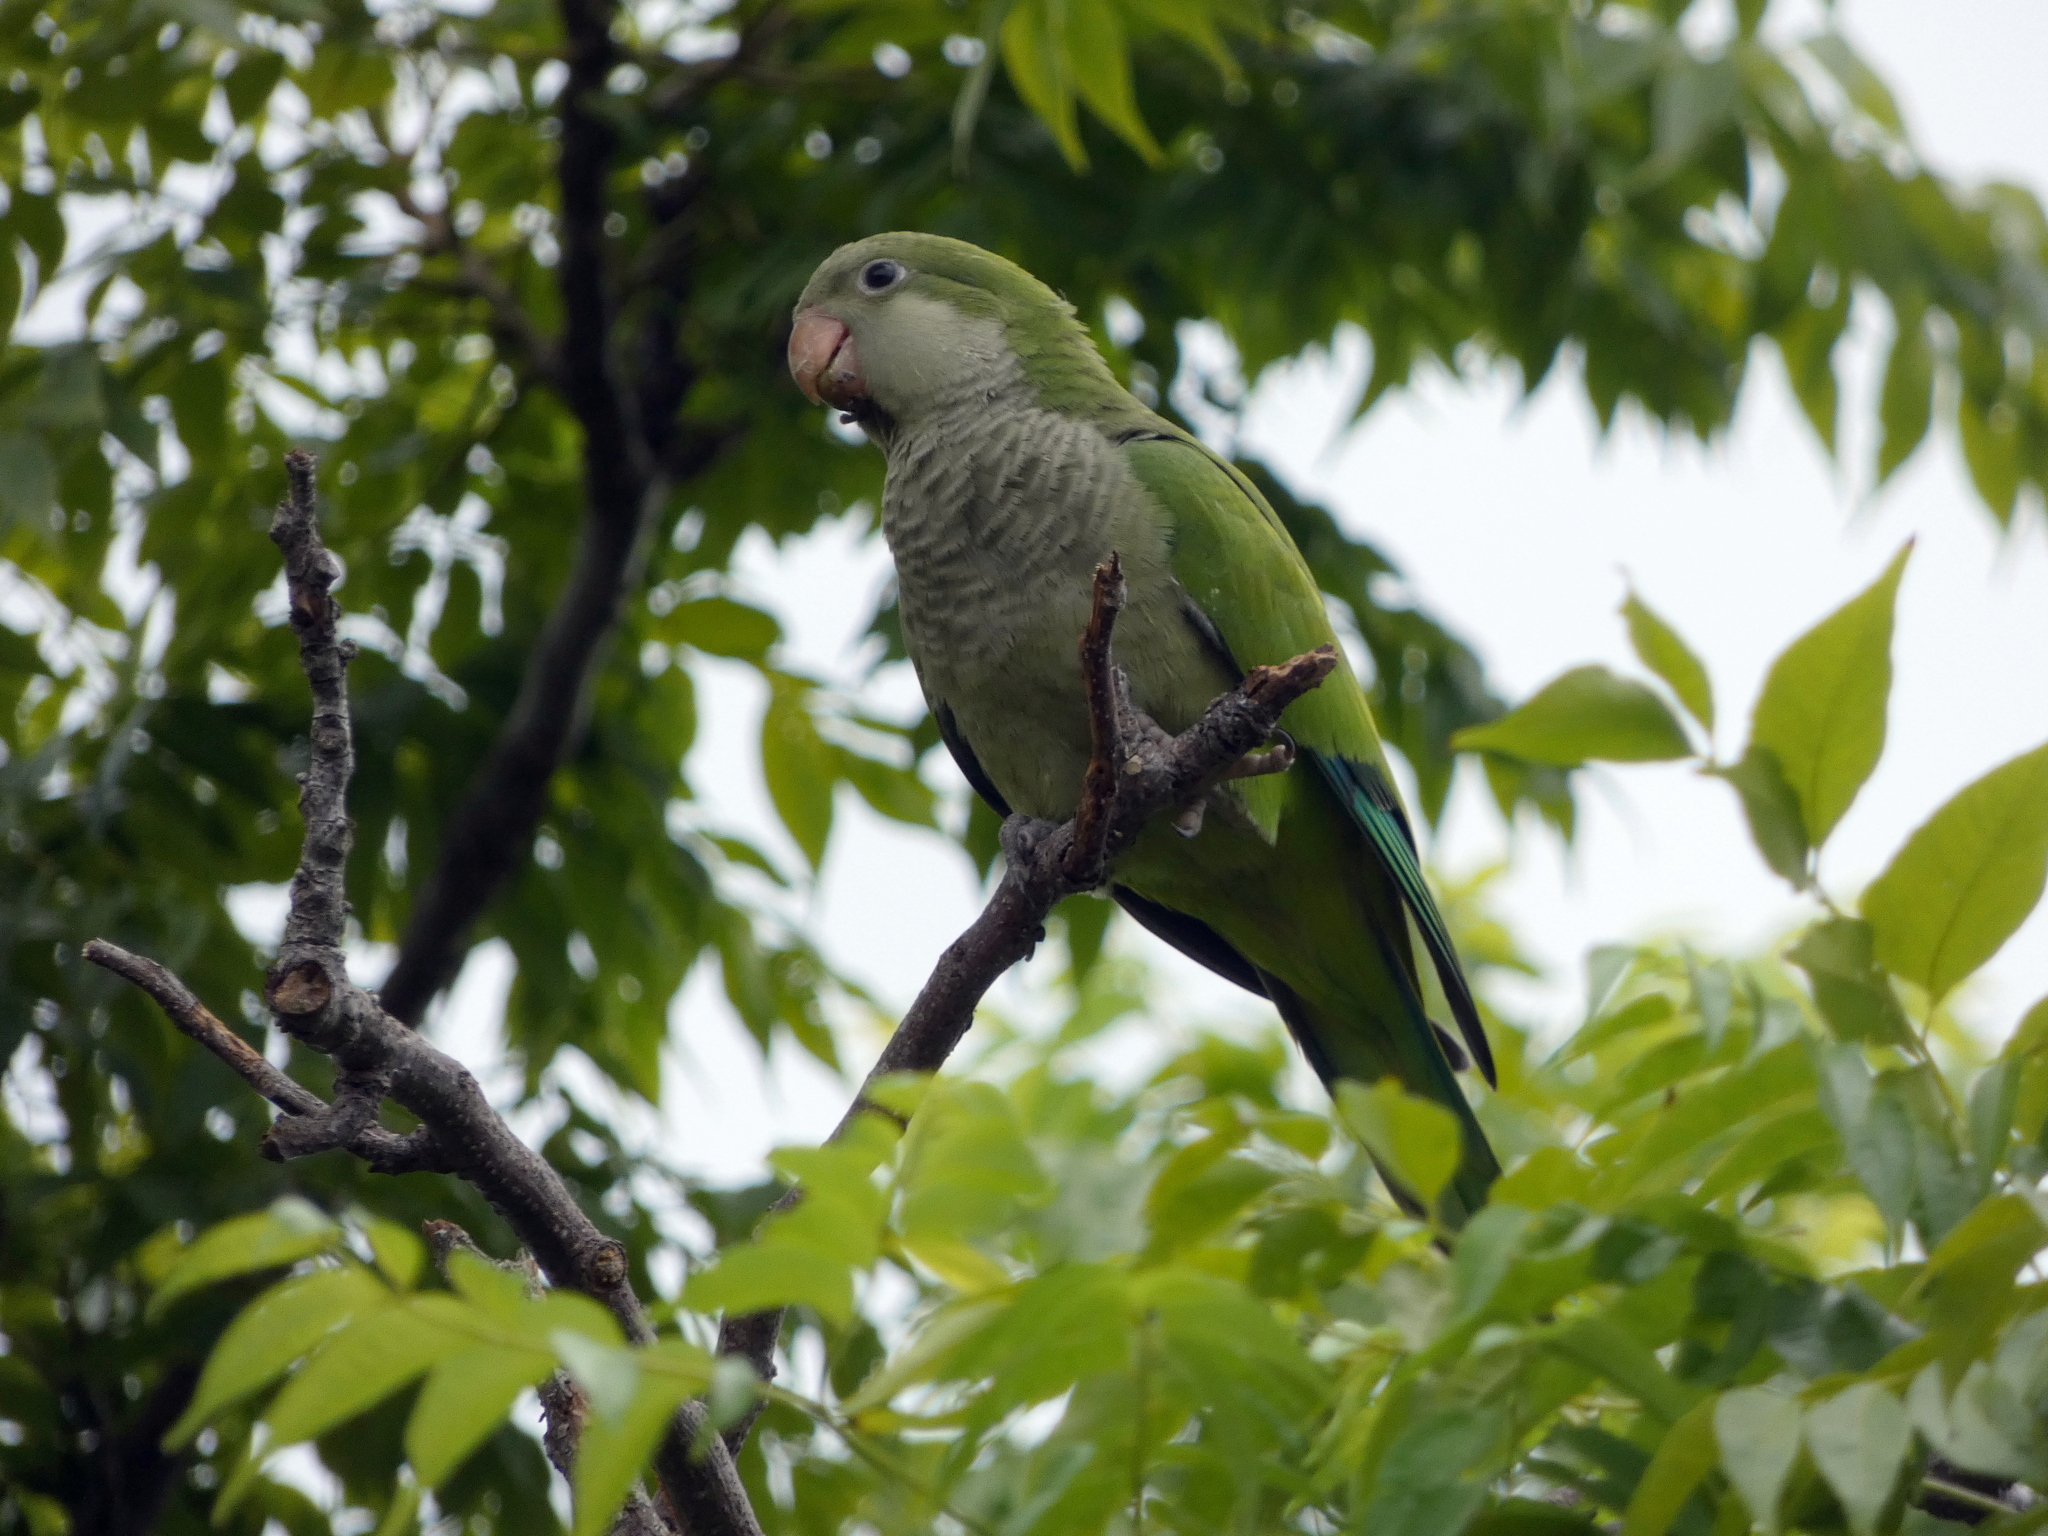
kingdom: Animalia
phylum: Chordata
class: Aves
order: Psittaciformes
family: Psittacidae
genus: Myiopsitta
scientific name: Myiopsitta monachus
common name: Monk parakeet
